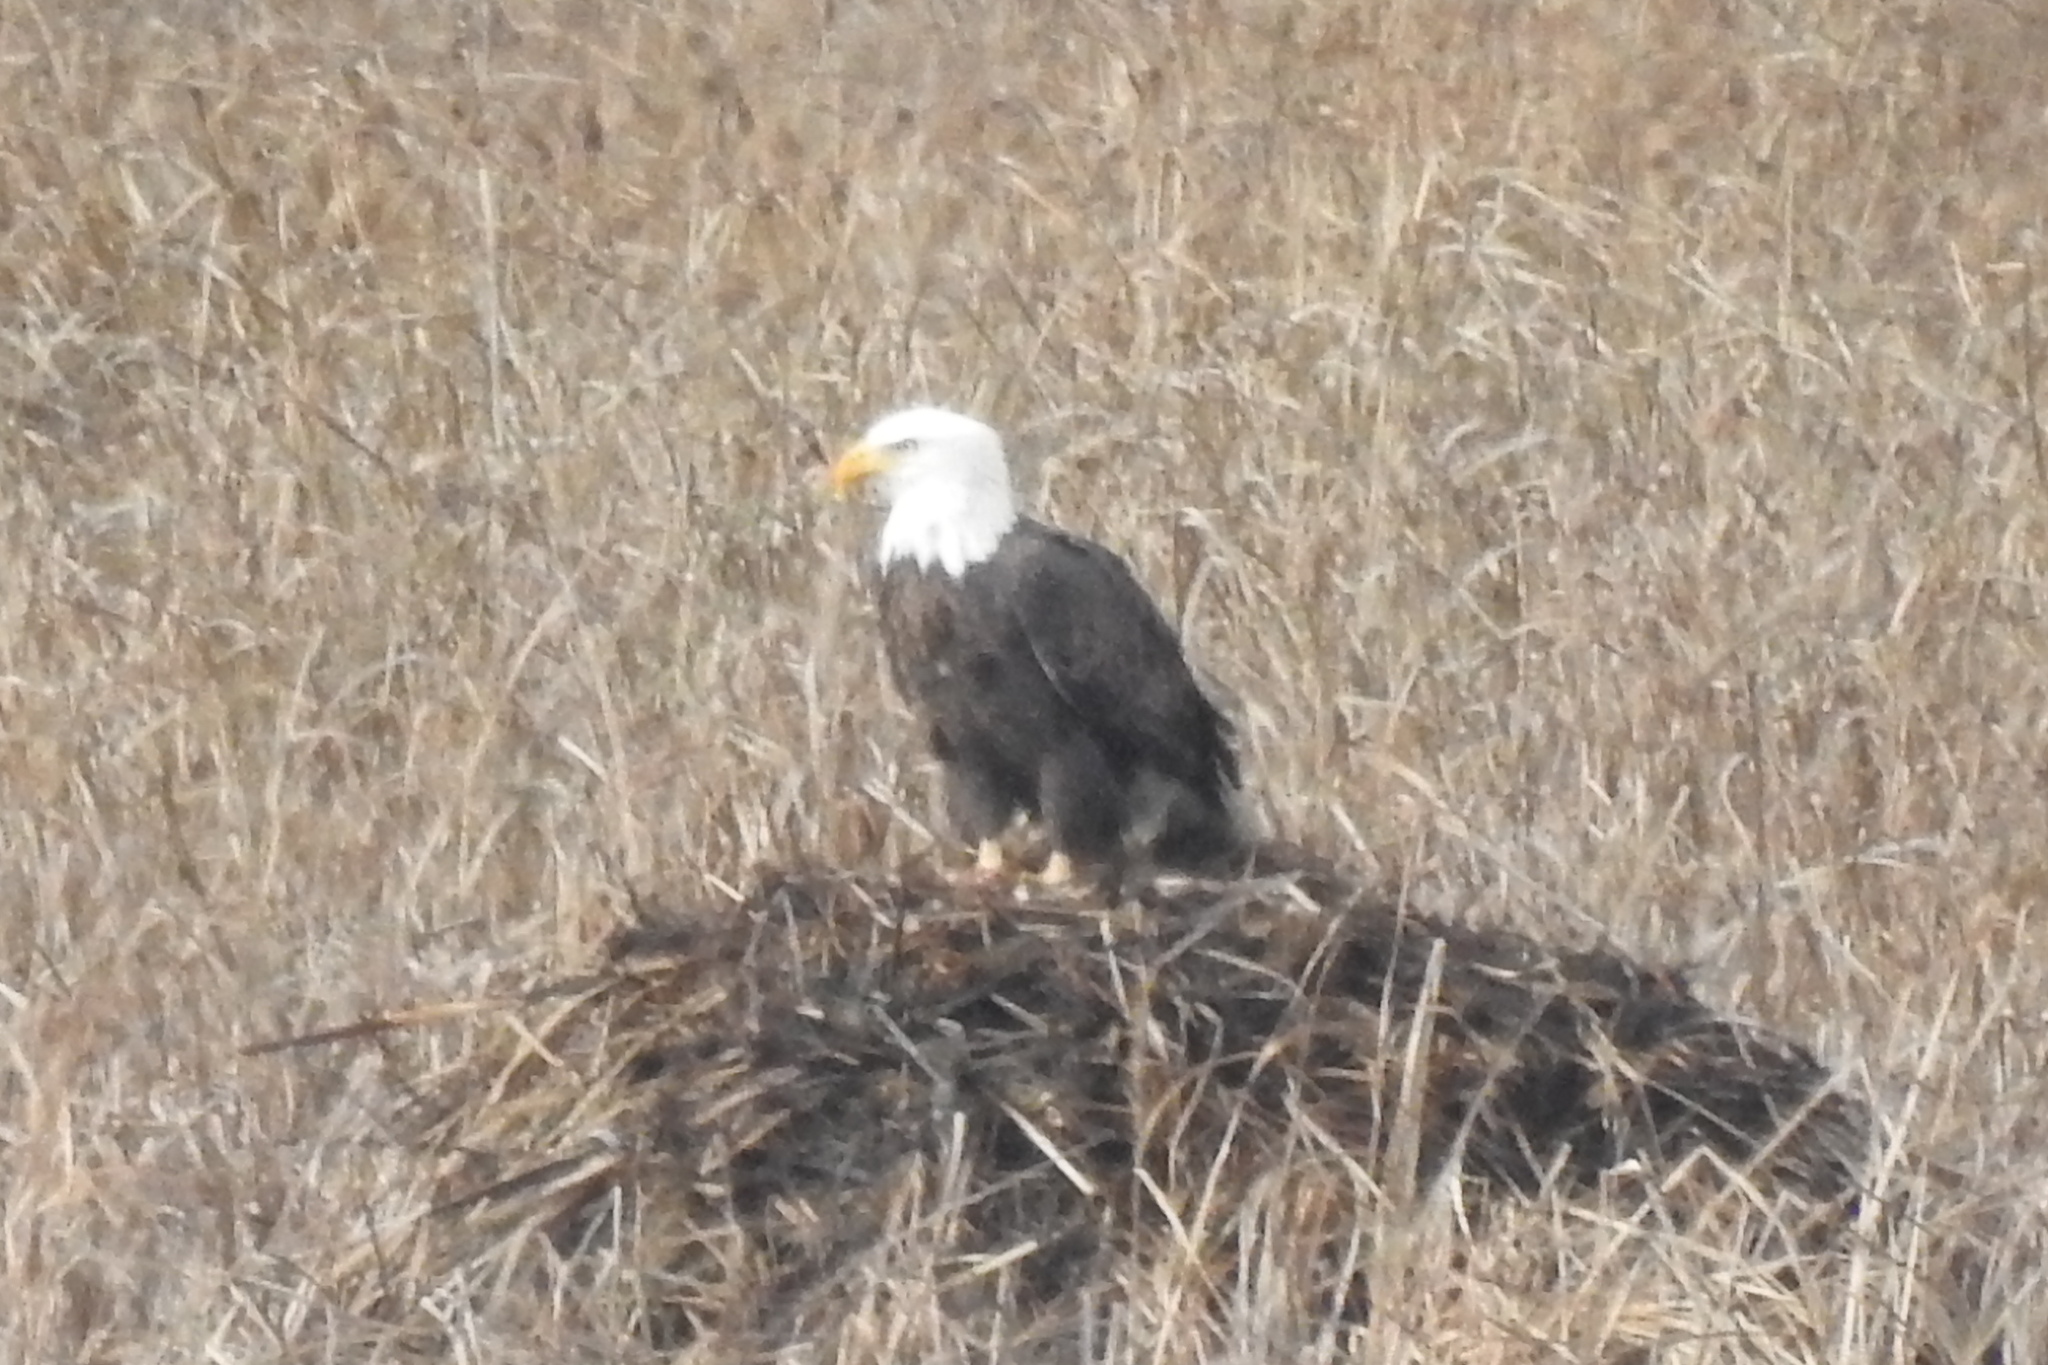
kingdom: Animalia
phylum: Chordata
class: Aves
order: Accipitriformes
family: Accipitridae
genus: Haliaeetus
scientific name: Haliaeetus leucocephalus
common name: Bald eagle
